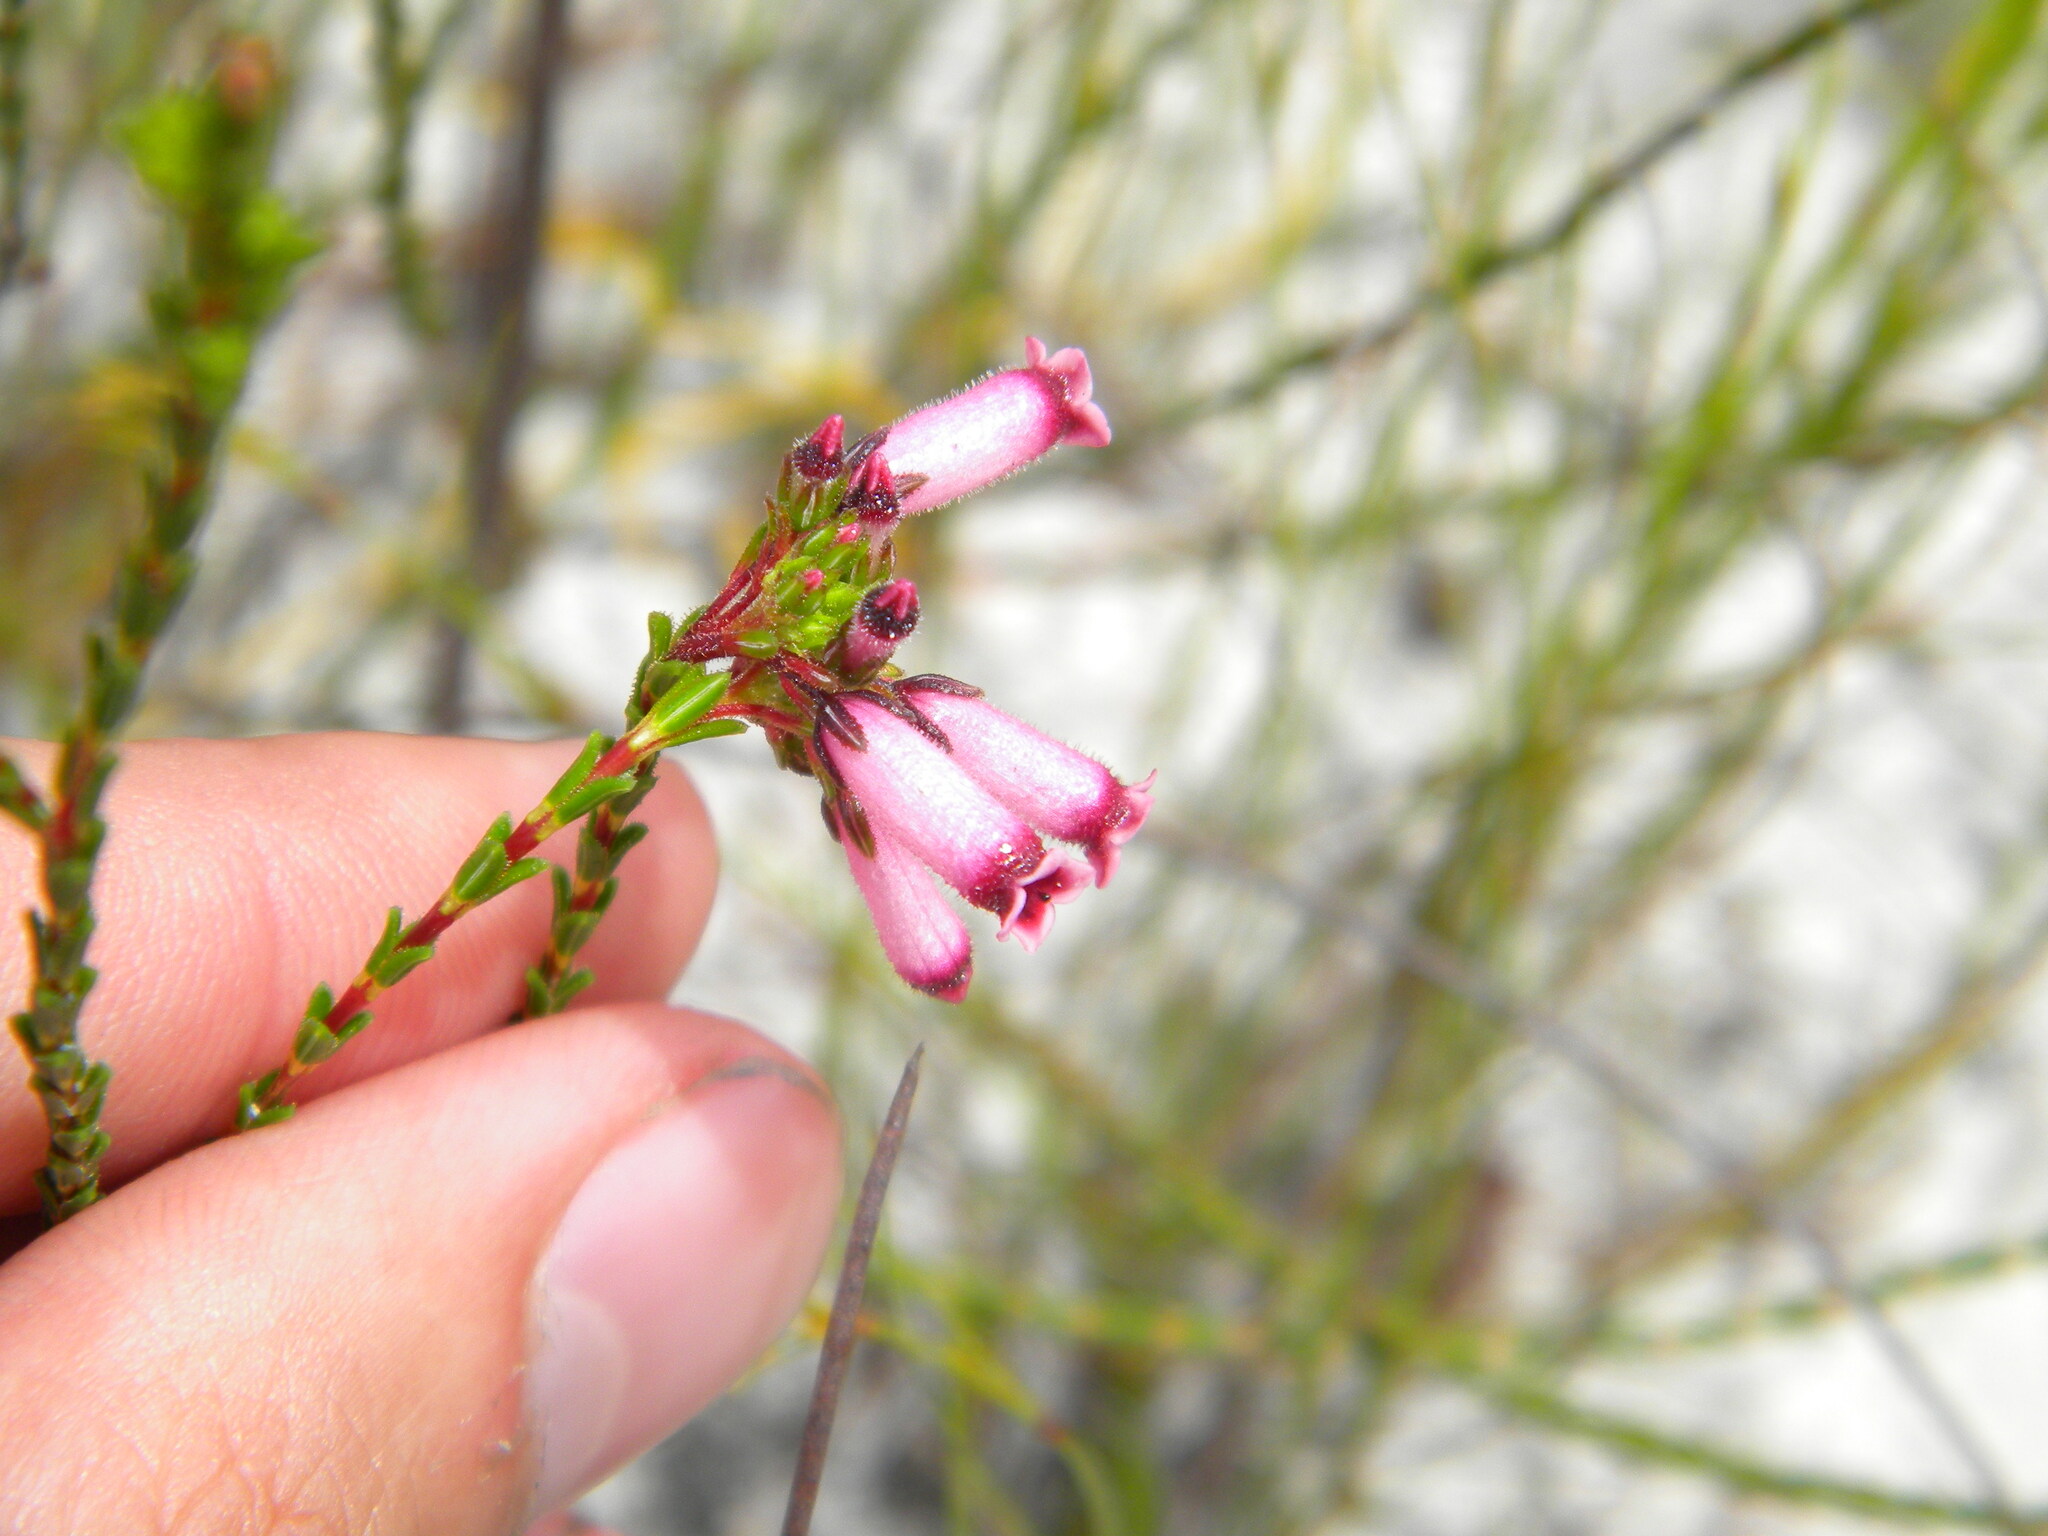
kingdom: Plantae
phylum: Tracheophyta
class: Magnoliopsida
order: Ericales
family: Ericaceae
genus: Erica
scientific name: Erica cristata
